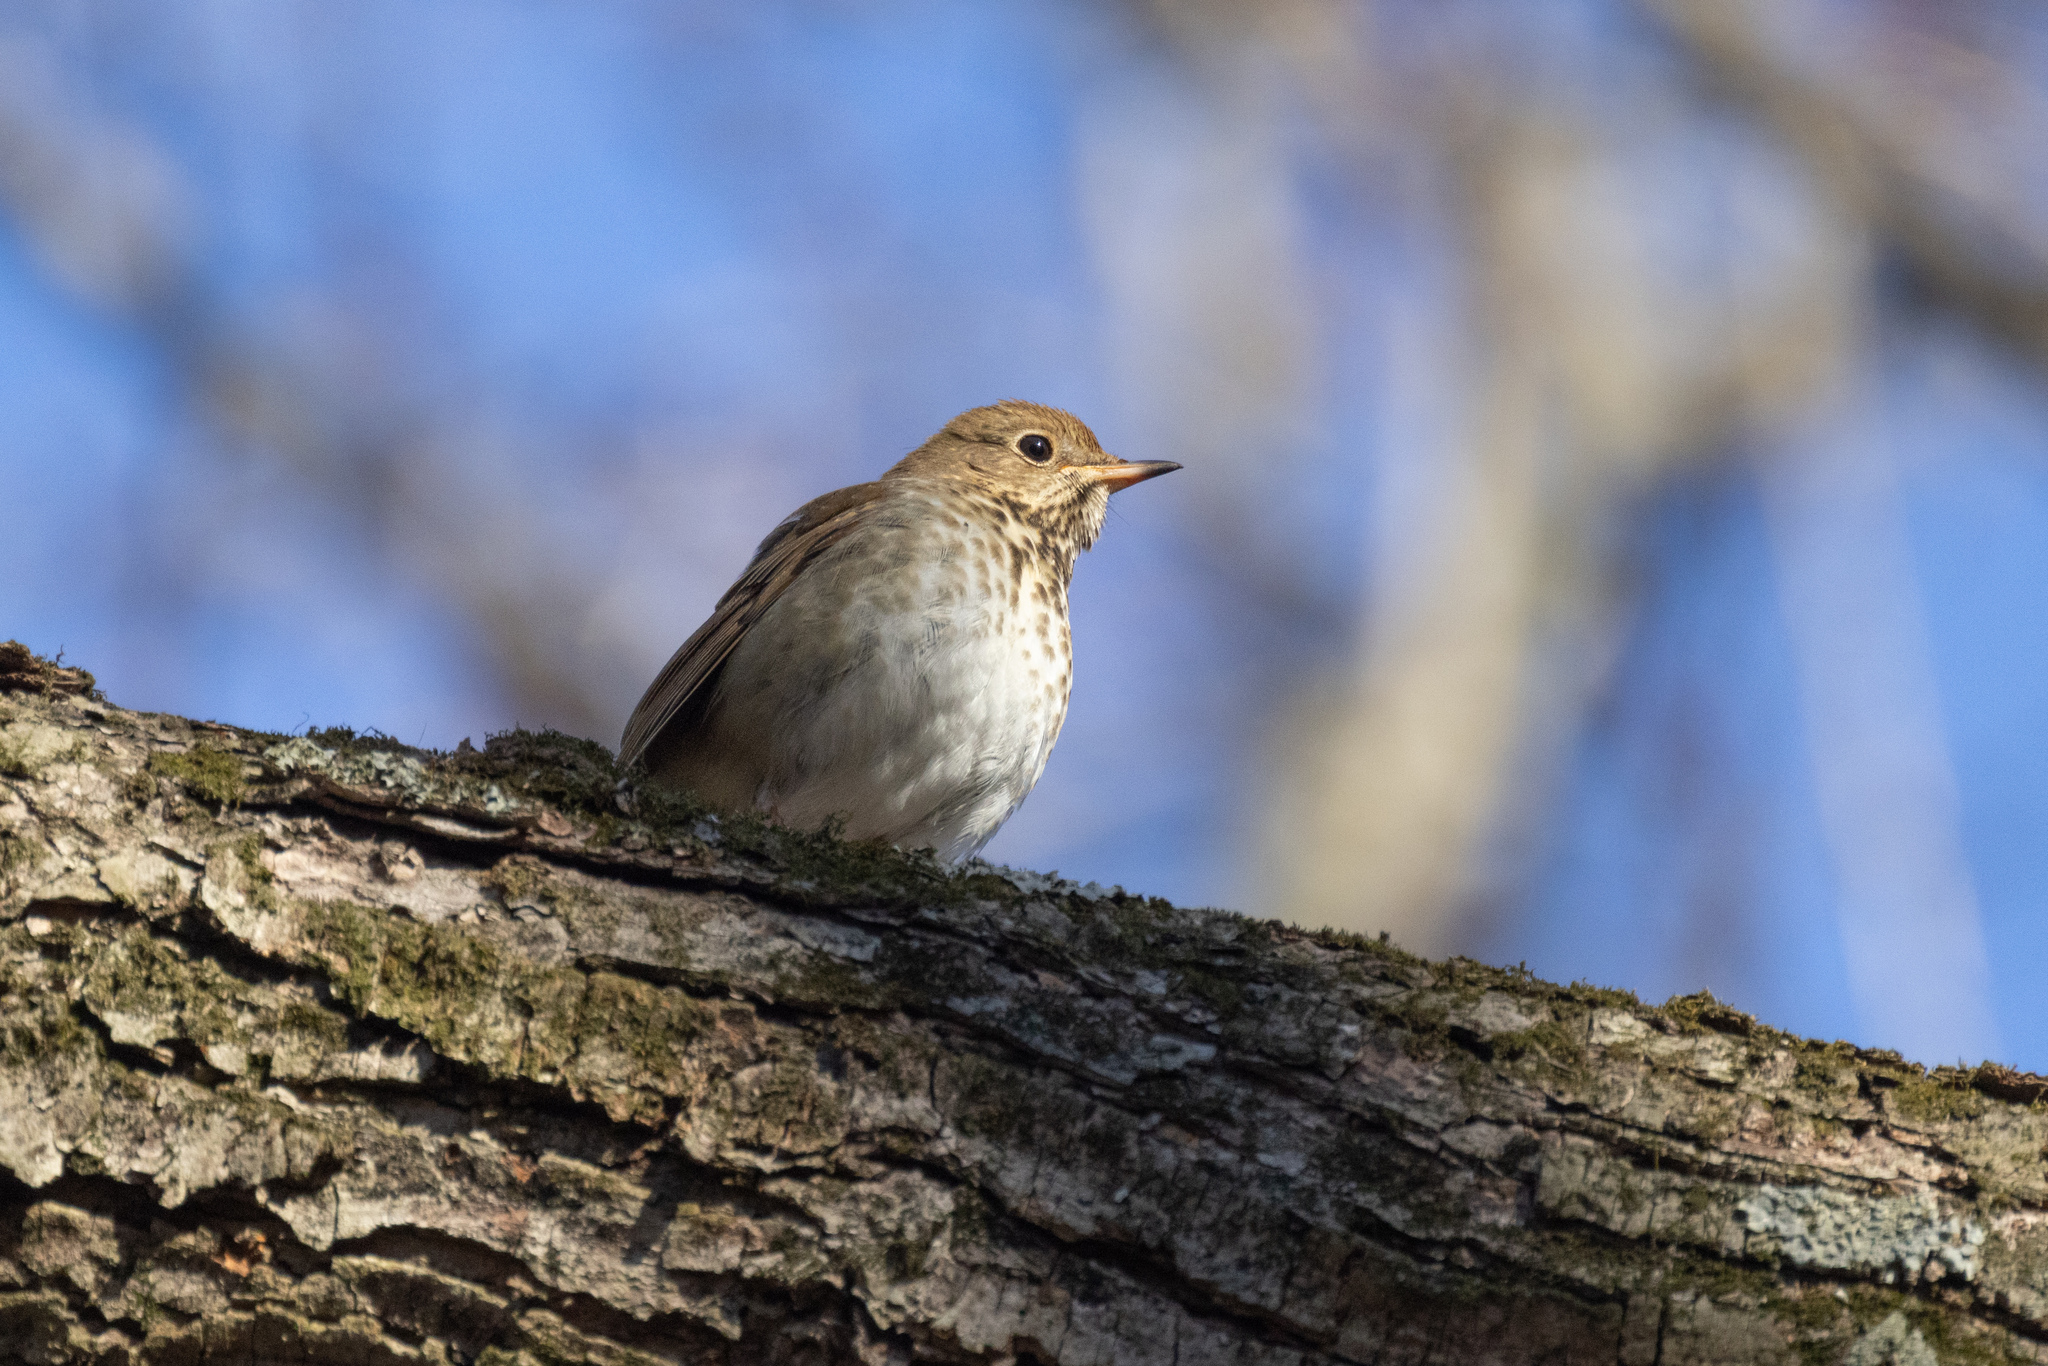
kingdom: Animalia
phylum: Chordata
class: Aves
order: Passeriformes
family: Turdidae
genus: Catharus
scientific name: Catharus guttatus
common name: Hermit thrush
